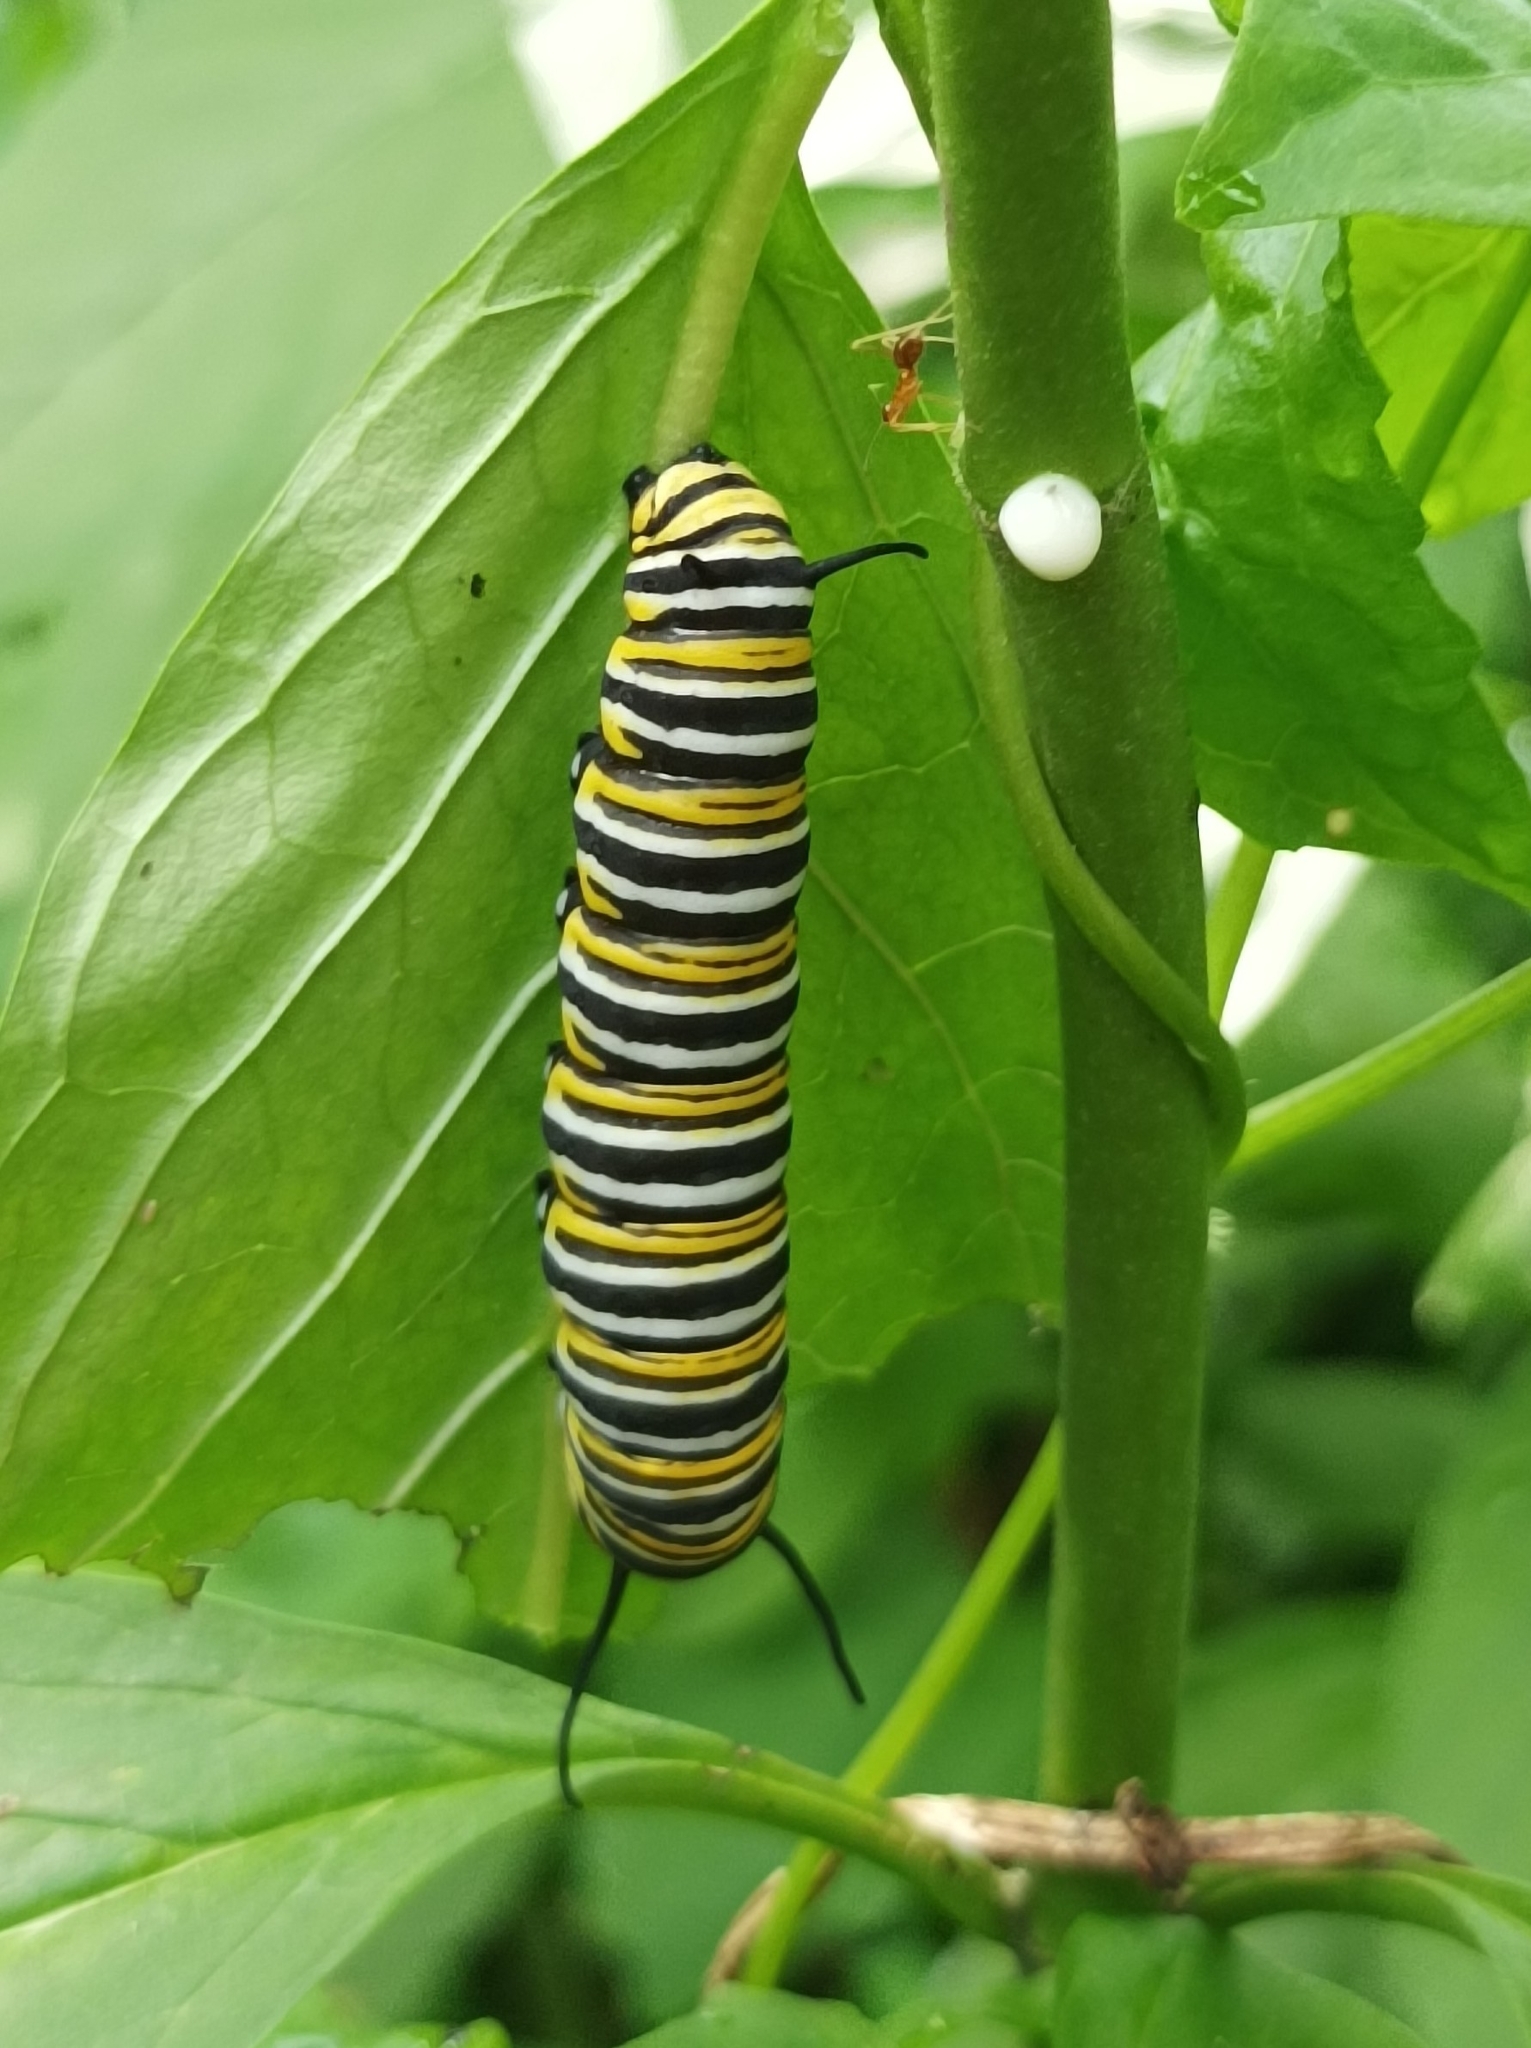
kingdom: Animalia
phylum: Arthropoda
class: Insecta
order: Lepidoptera
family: Nymphalidae
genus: Danaus
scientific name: Danaus plexippus
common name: Monarch
